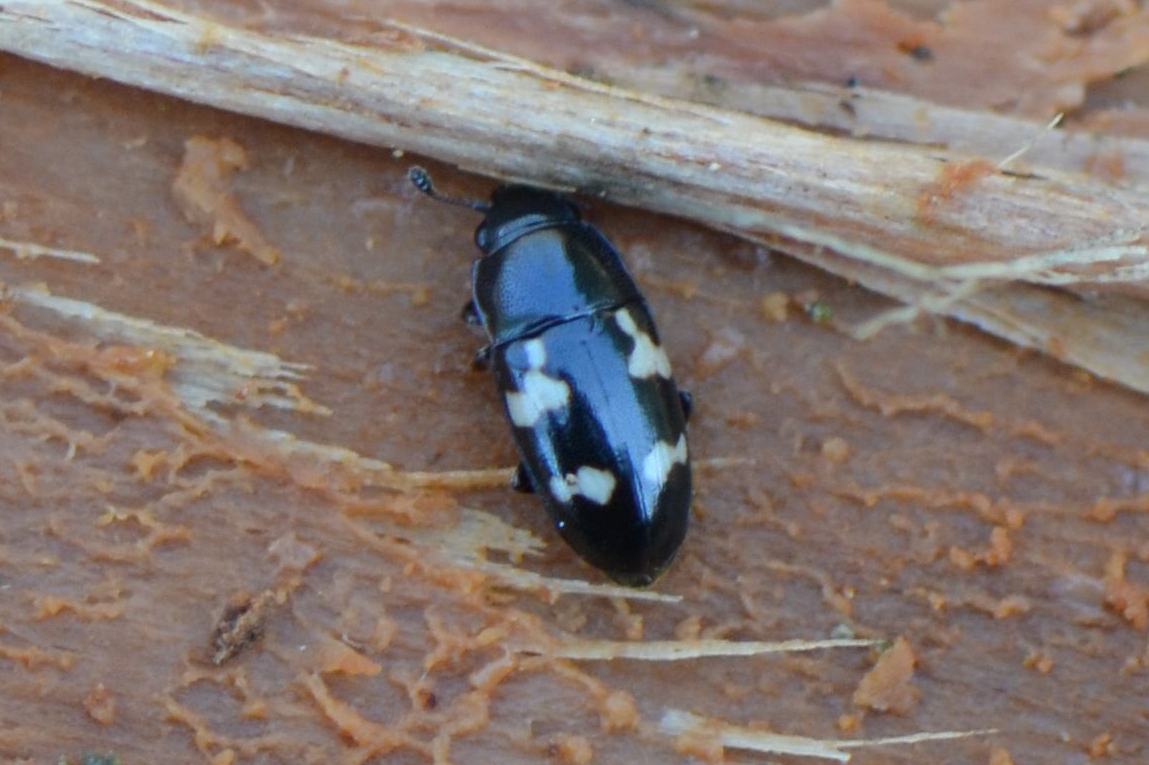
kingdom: Animalia
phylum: Arthropoda
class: Insecta
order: Coleoptera
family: Nitidulidae
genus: Glischrochilus
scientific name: Glischrochilus quadriguttatus
